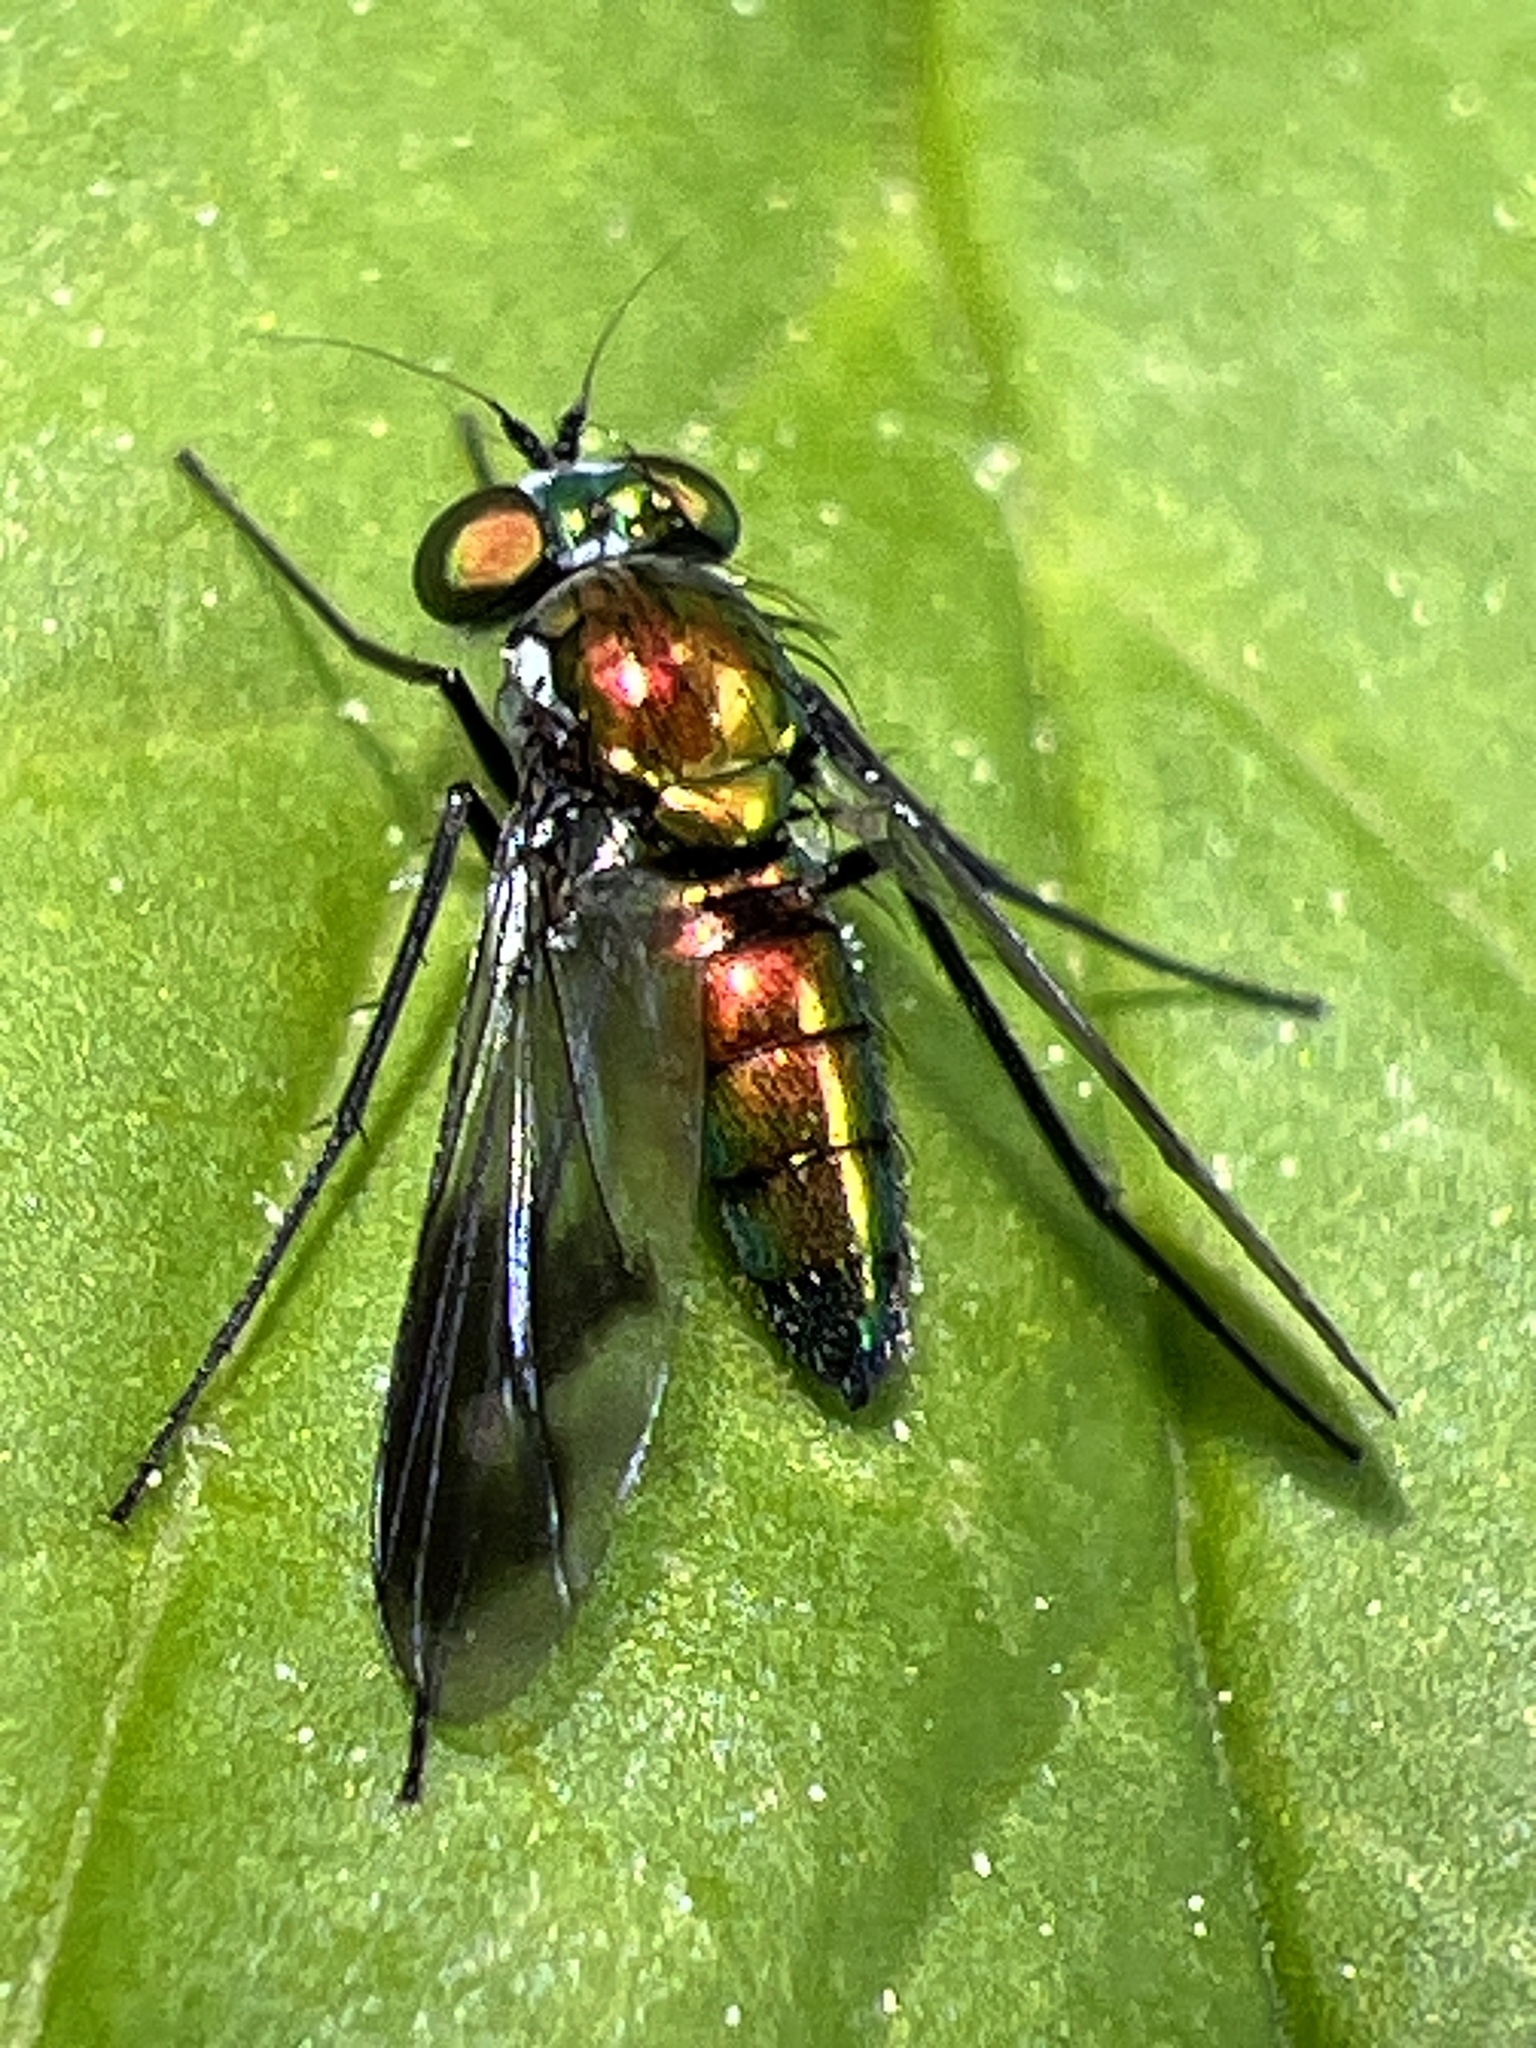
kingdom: Animalia
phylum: Arthropoda
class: Insecta
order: Diptera
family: Dolichopodidae
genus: Condylostylus
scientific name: Condylostylus patibulatus
